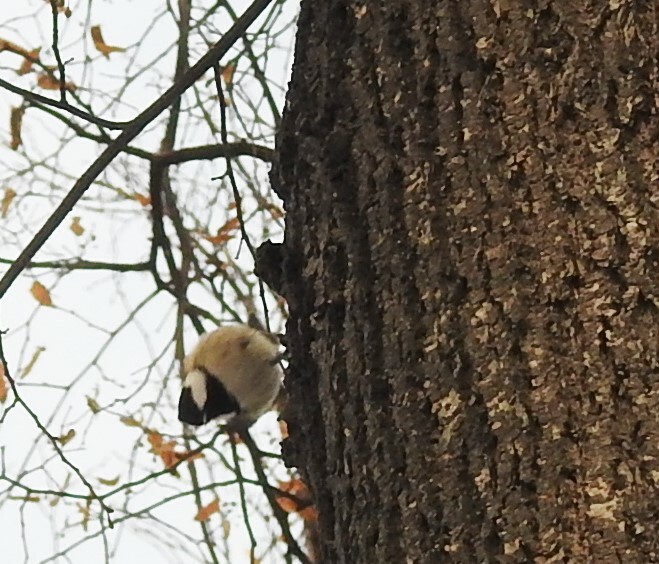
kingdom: Animalia
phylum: Chordata
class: Aves
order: Passeriformes
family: Paridae
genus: Periparus
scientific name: Periparus ater
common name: Coal tit
